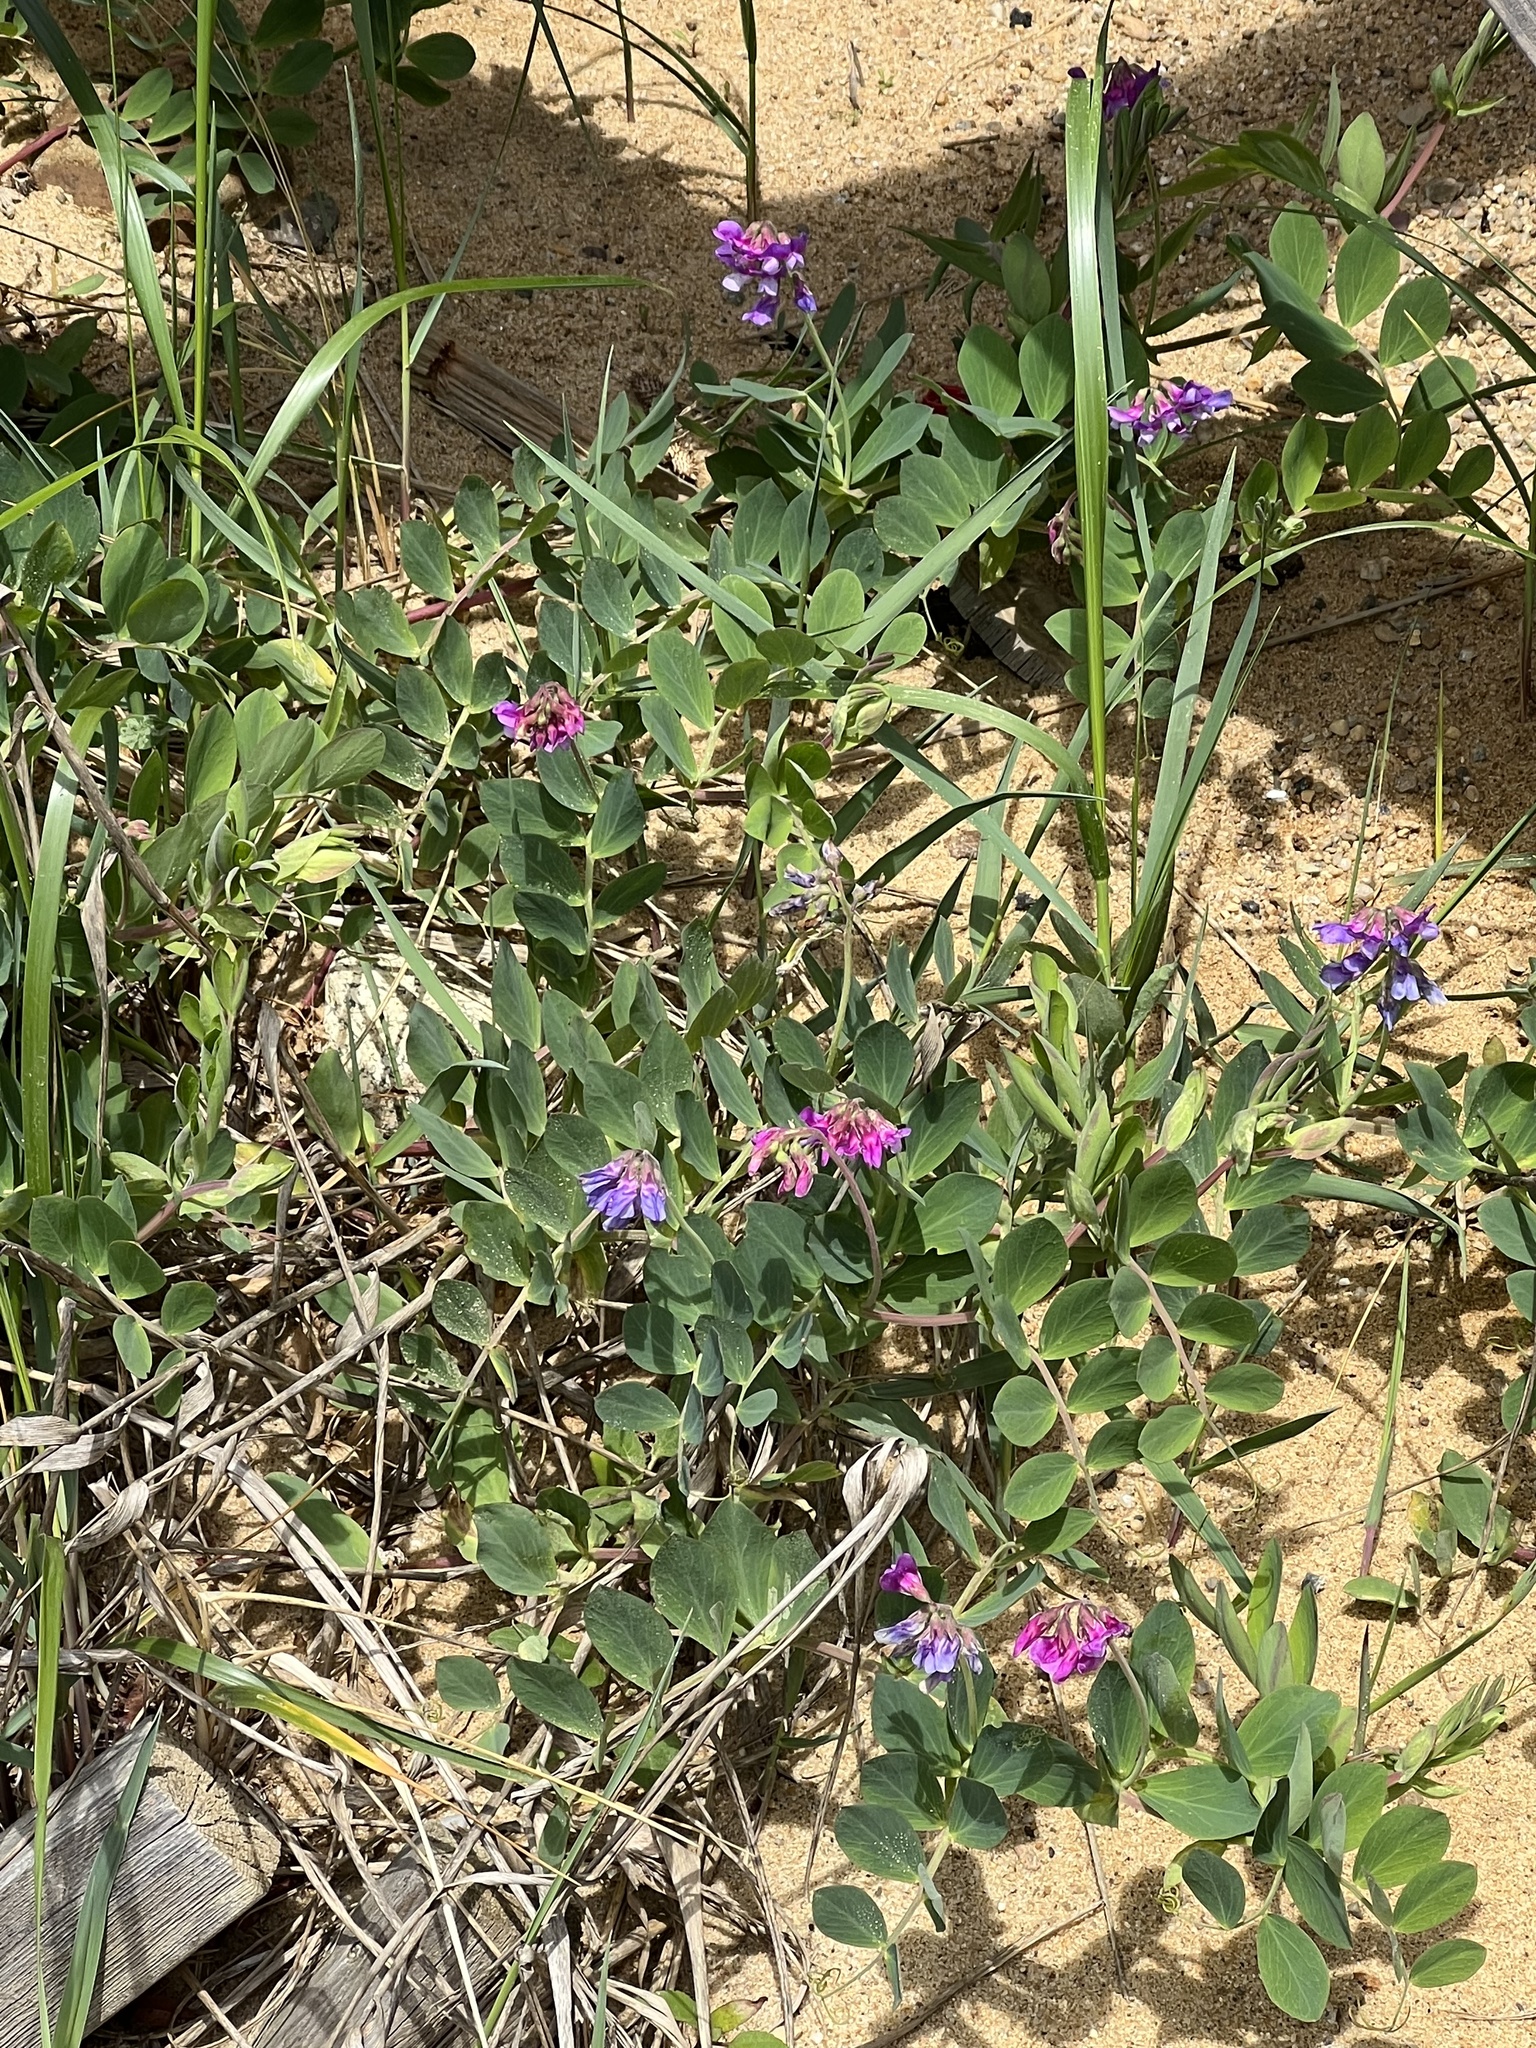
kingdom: Plantae
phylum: Tracheophyta
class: Magnoliopsida
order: Fabales
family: Fabaceae
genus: Lathyrus
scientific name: Lathyrus japonicus
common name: Sea pea
